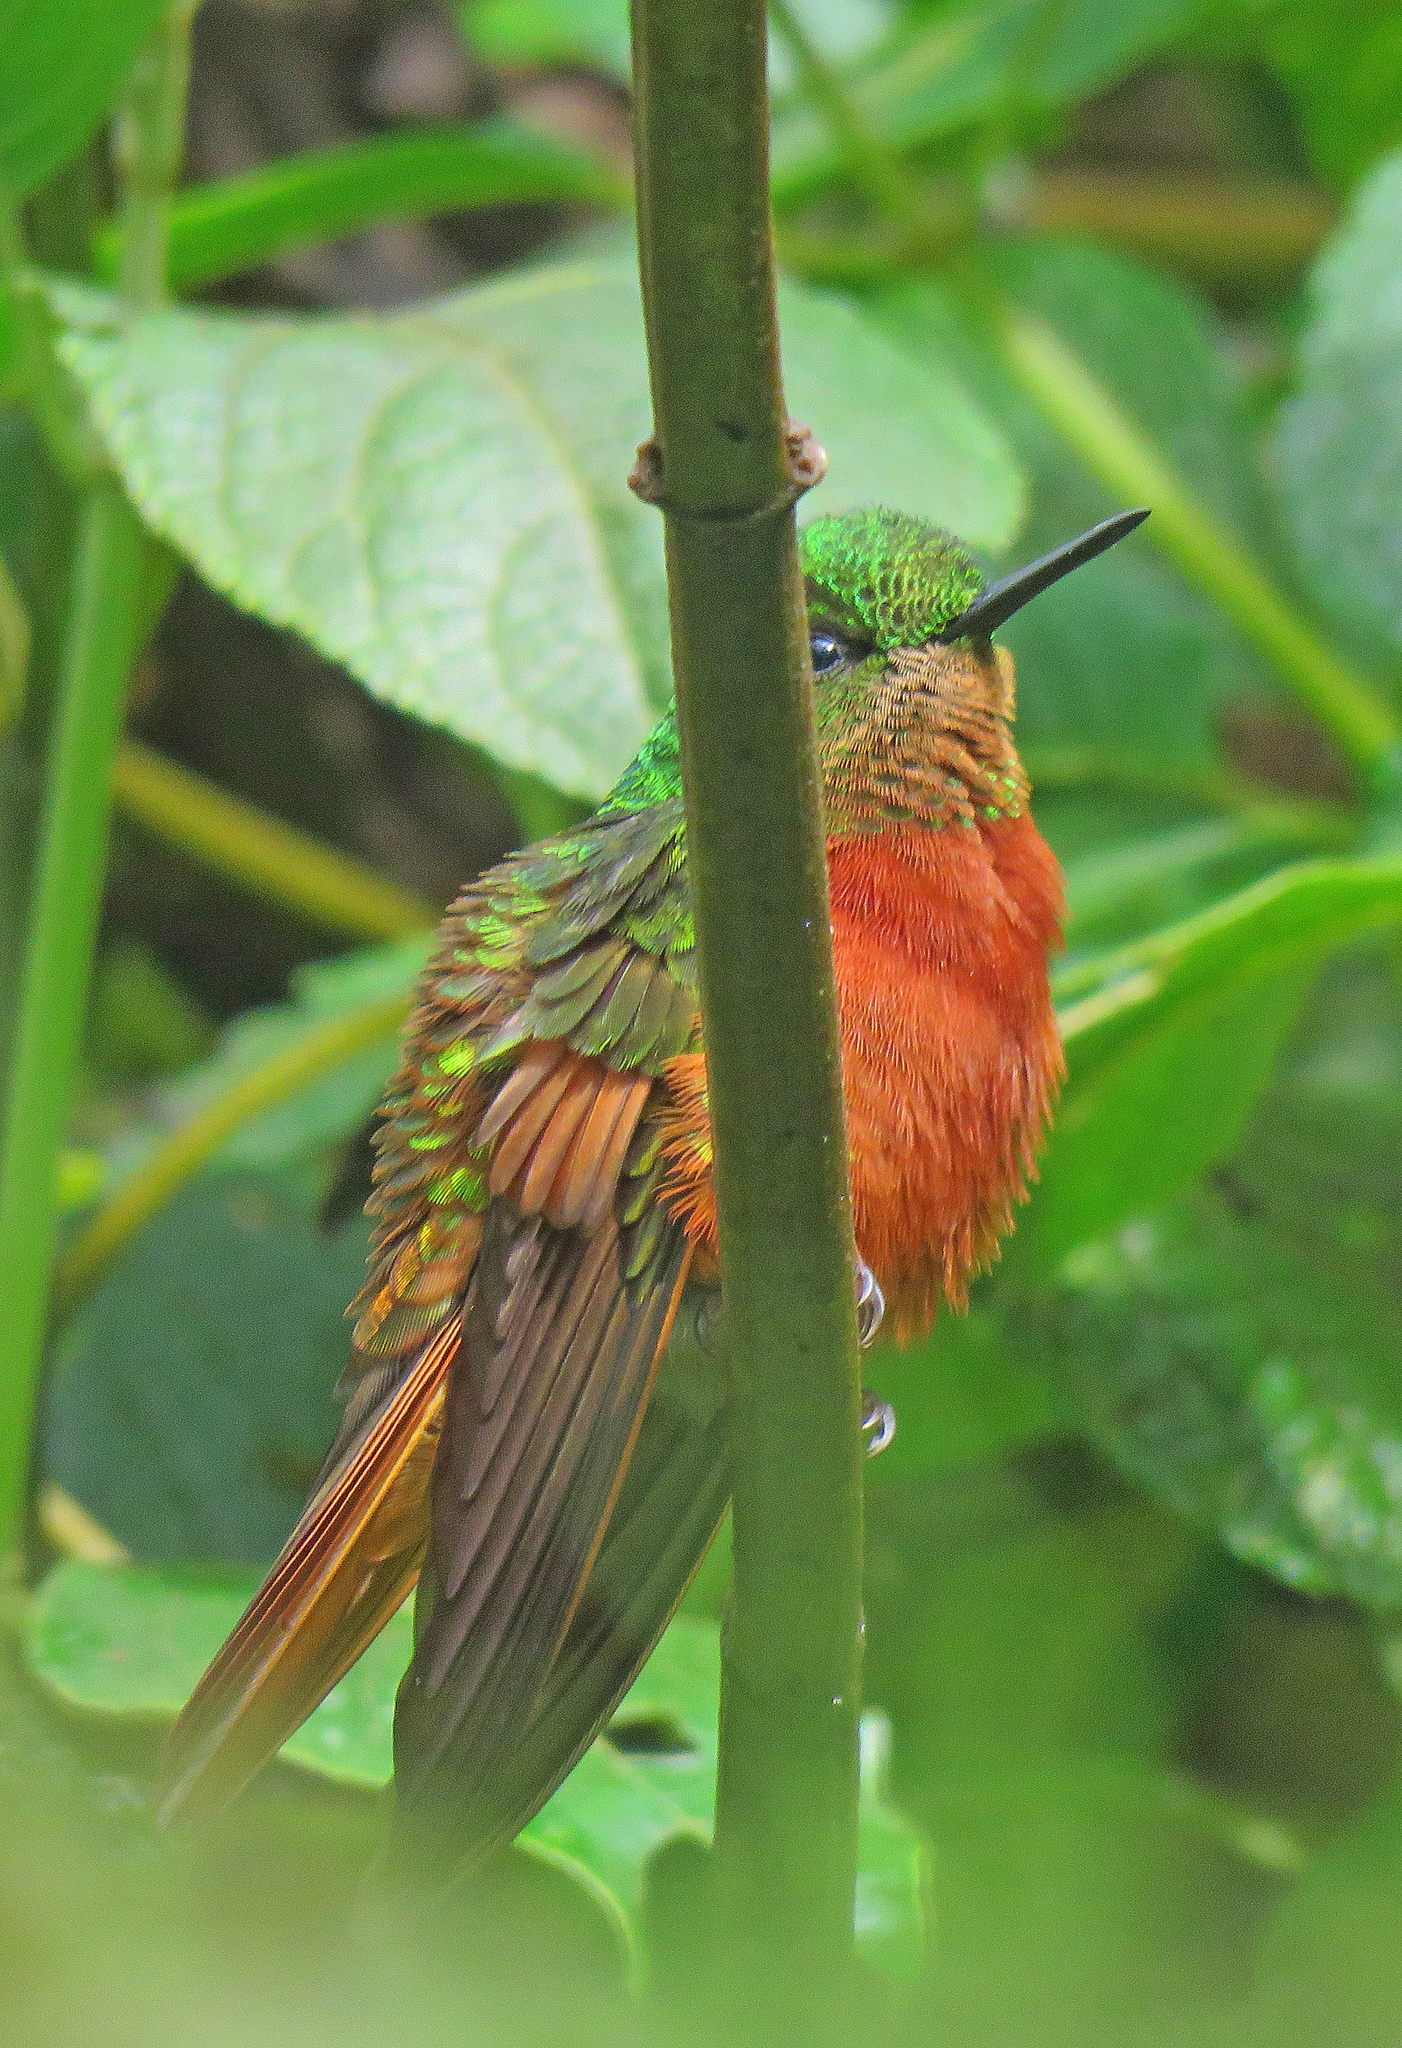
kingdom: Animalia
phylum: Chordata
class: Aves
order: Apodiformes
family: Trochilidae
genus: Boissonneaua
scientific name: Boissonneaua matthewsii
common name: Chestnut-breasted coronet
